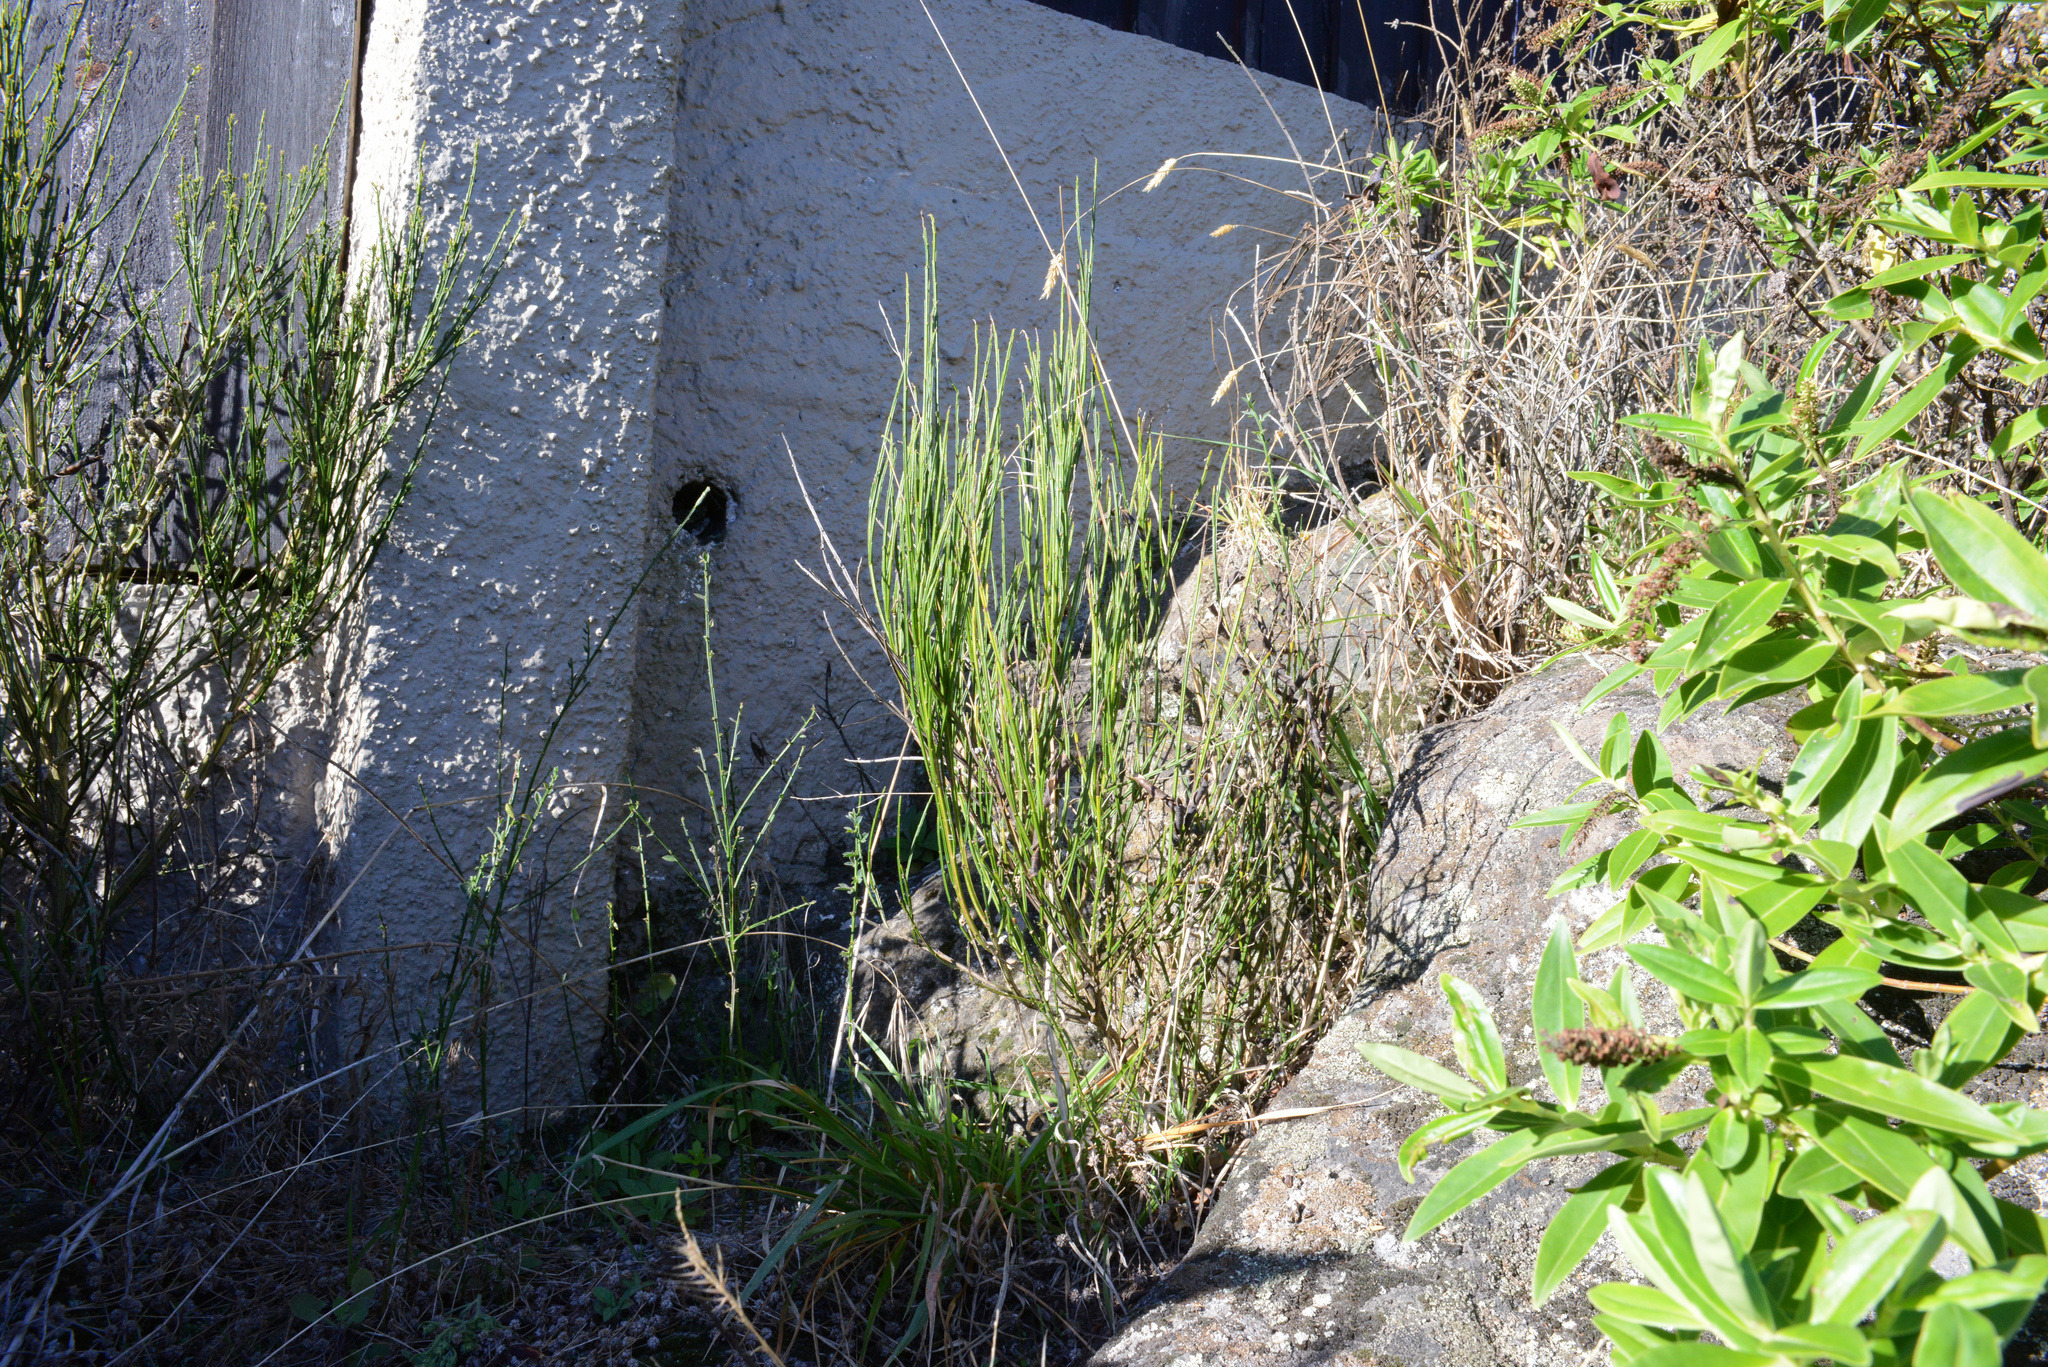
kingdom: Plantae
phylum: Tracheophyta
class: Magnoliopsida
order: Fabales
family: Fabaceae
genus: Cytisus
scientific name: Cytisus scoparius
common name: Scotch broom
